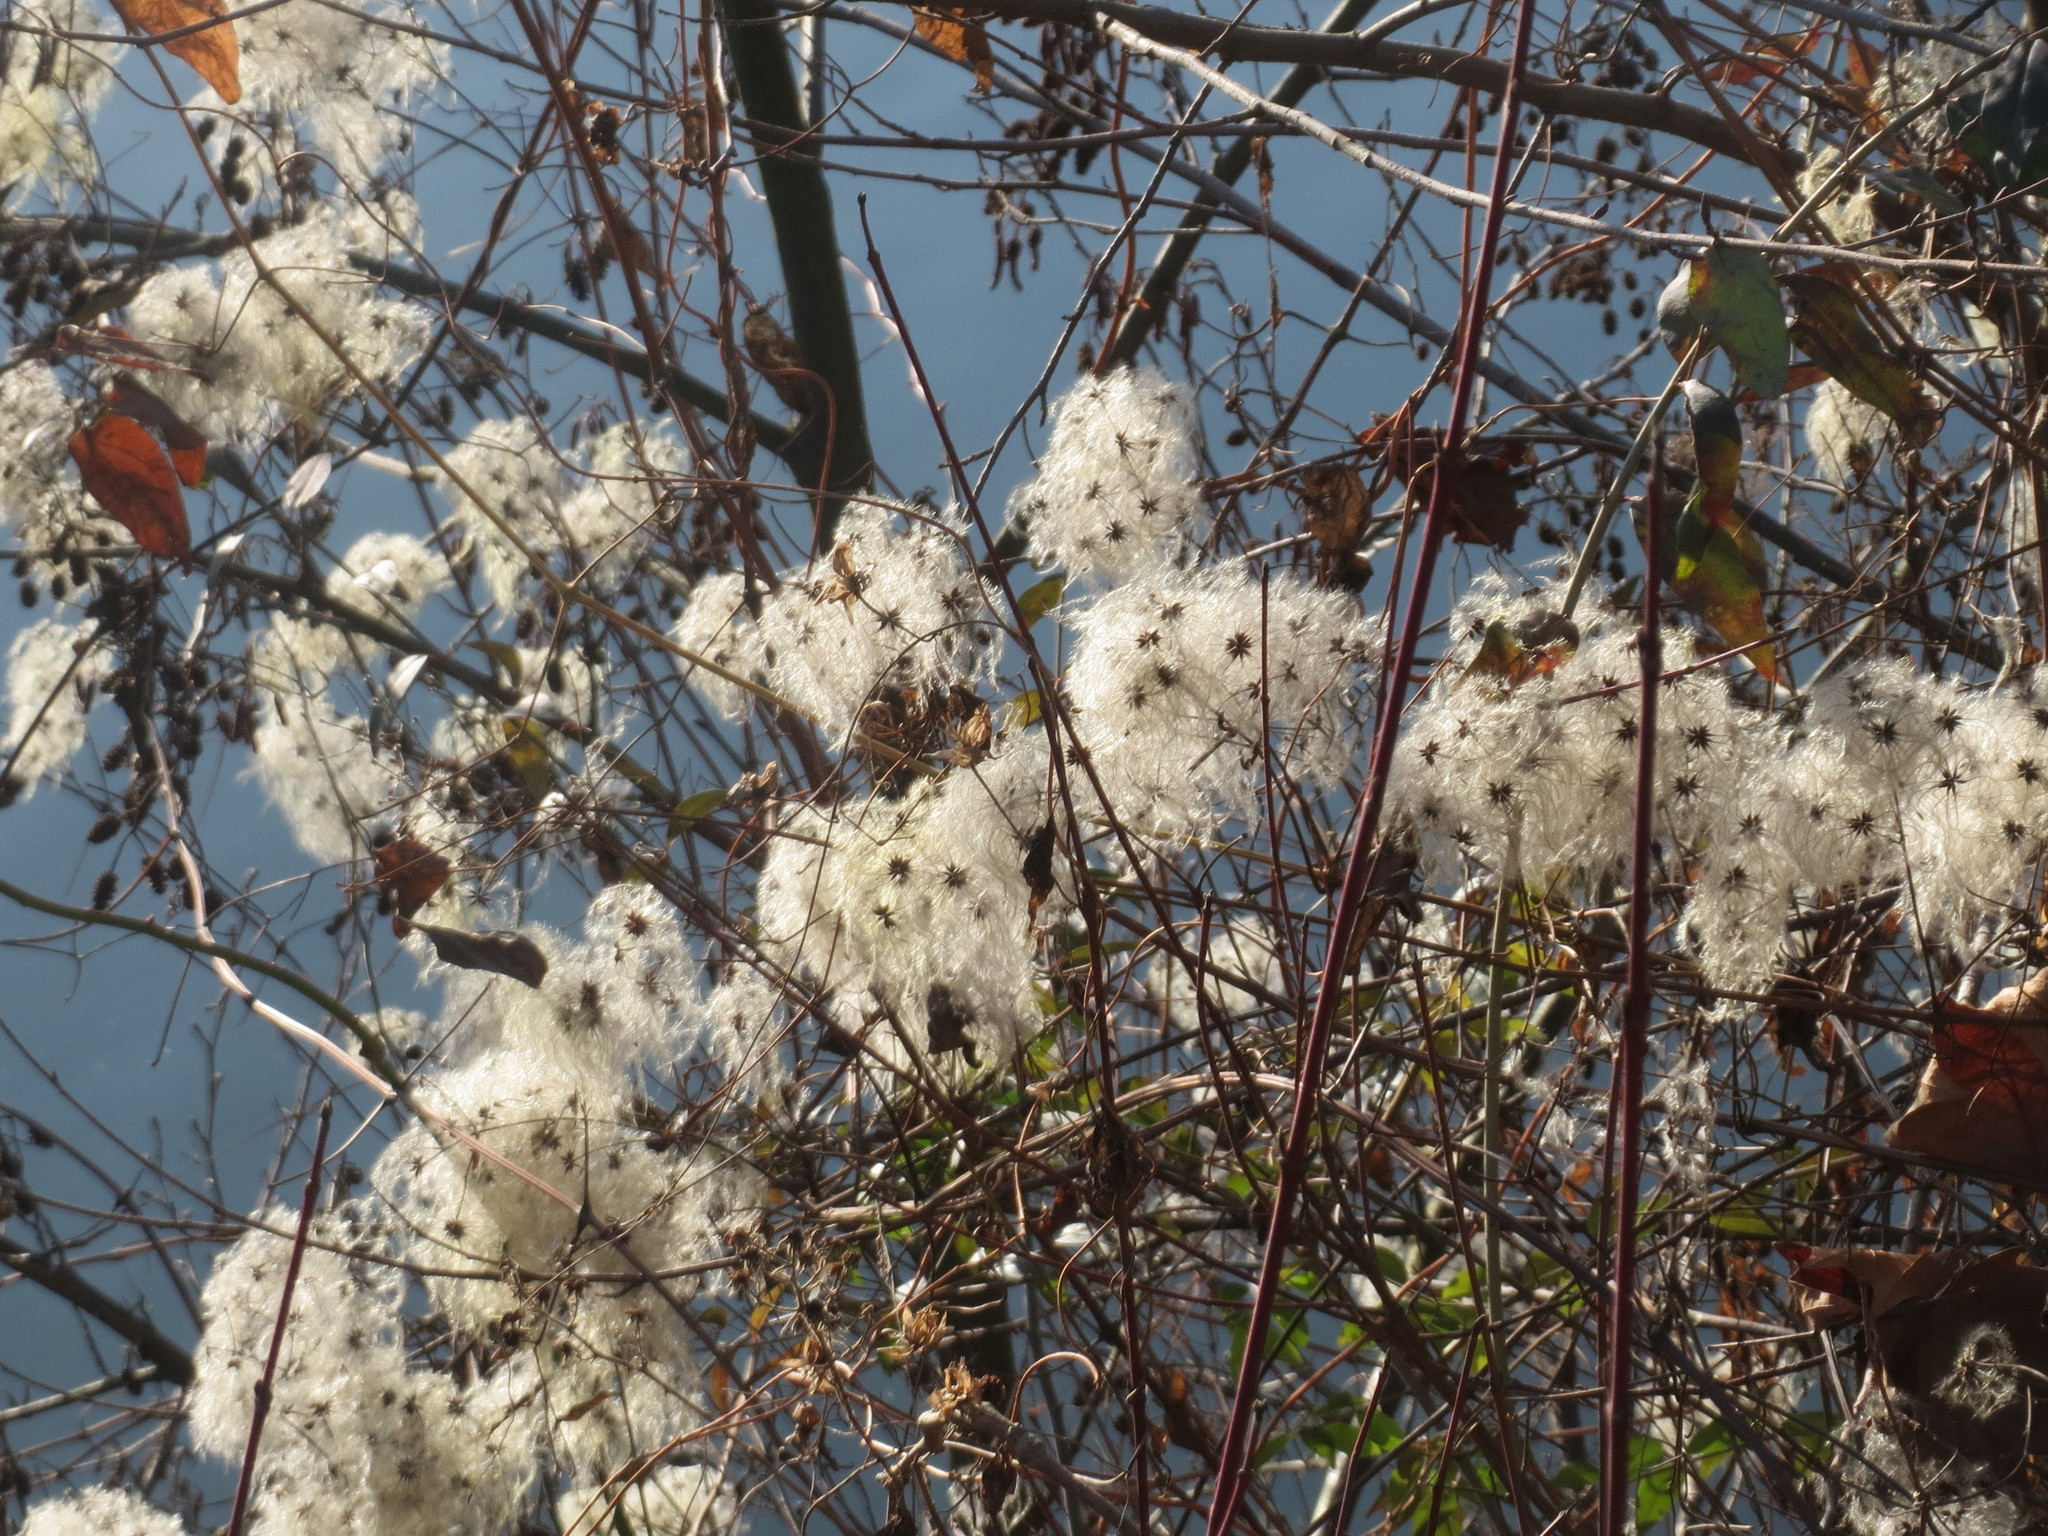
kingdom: Plantae
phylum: Tracheophyta
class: Magnoliopsida
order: Ranunculales
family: Ranunculaceae
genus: Clematis
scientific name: Clematis vitalba
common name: Evergreen clematis
